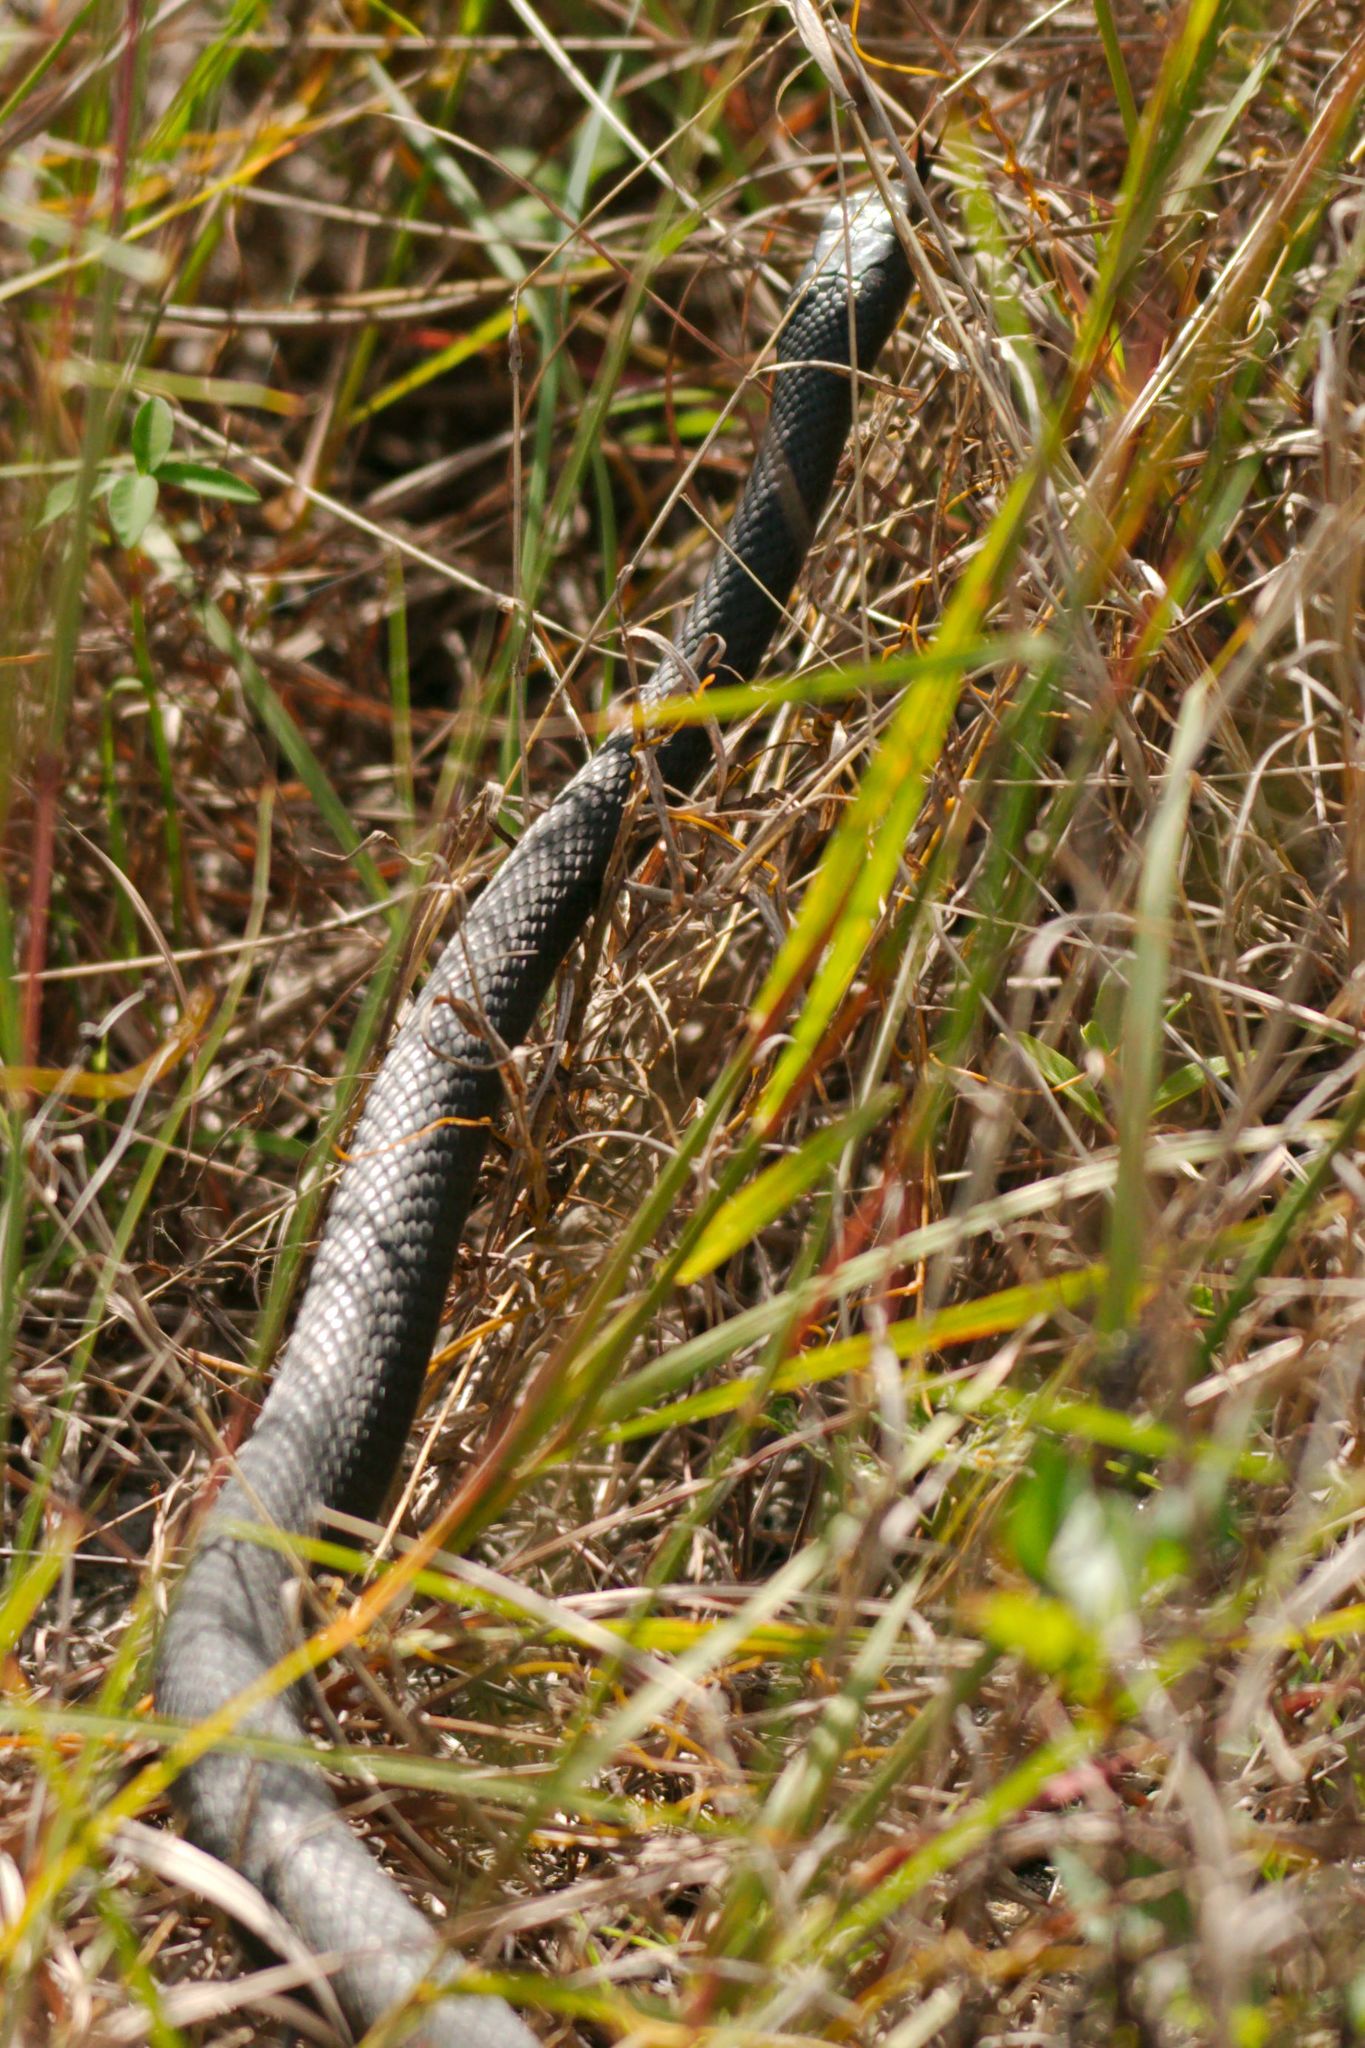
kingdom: Animalia
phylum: Chordata
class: Squamata
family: Colubridae
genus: Coluber
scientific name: Coluber constrictor
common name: Eastern racer
